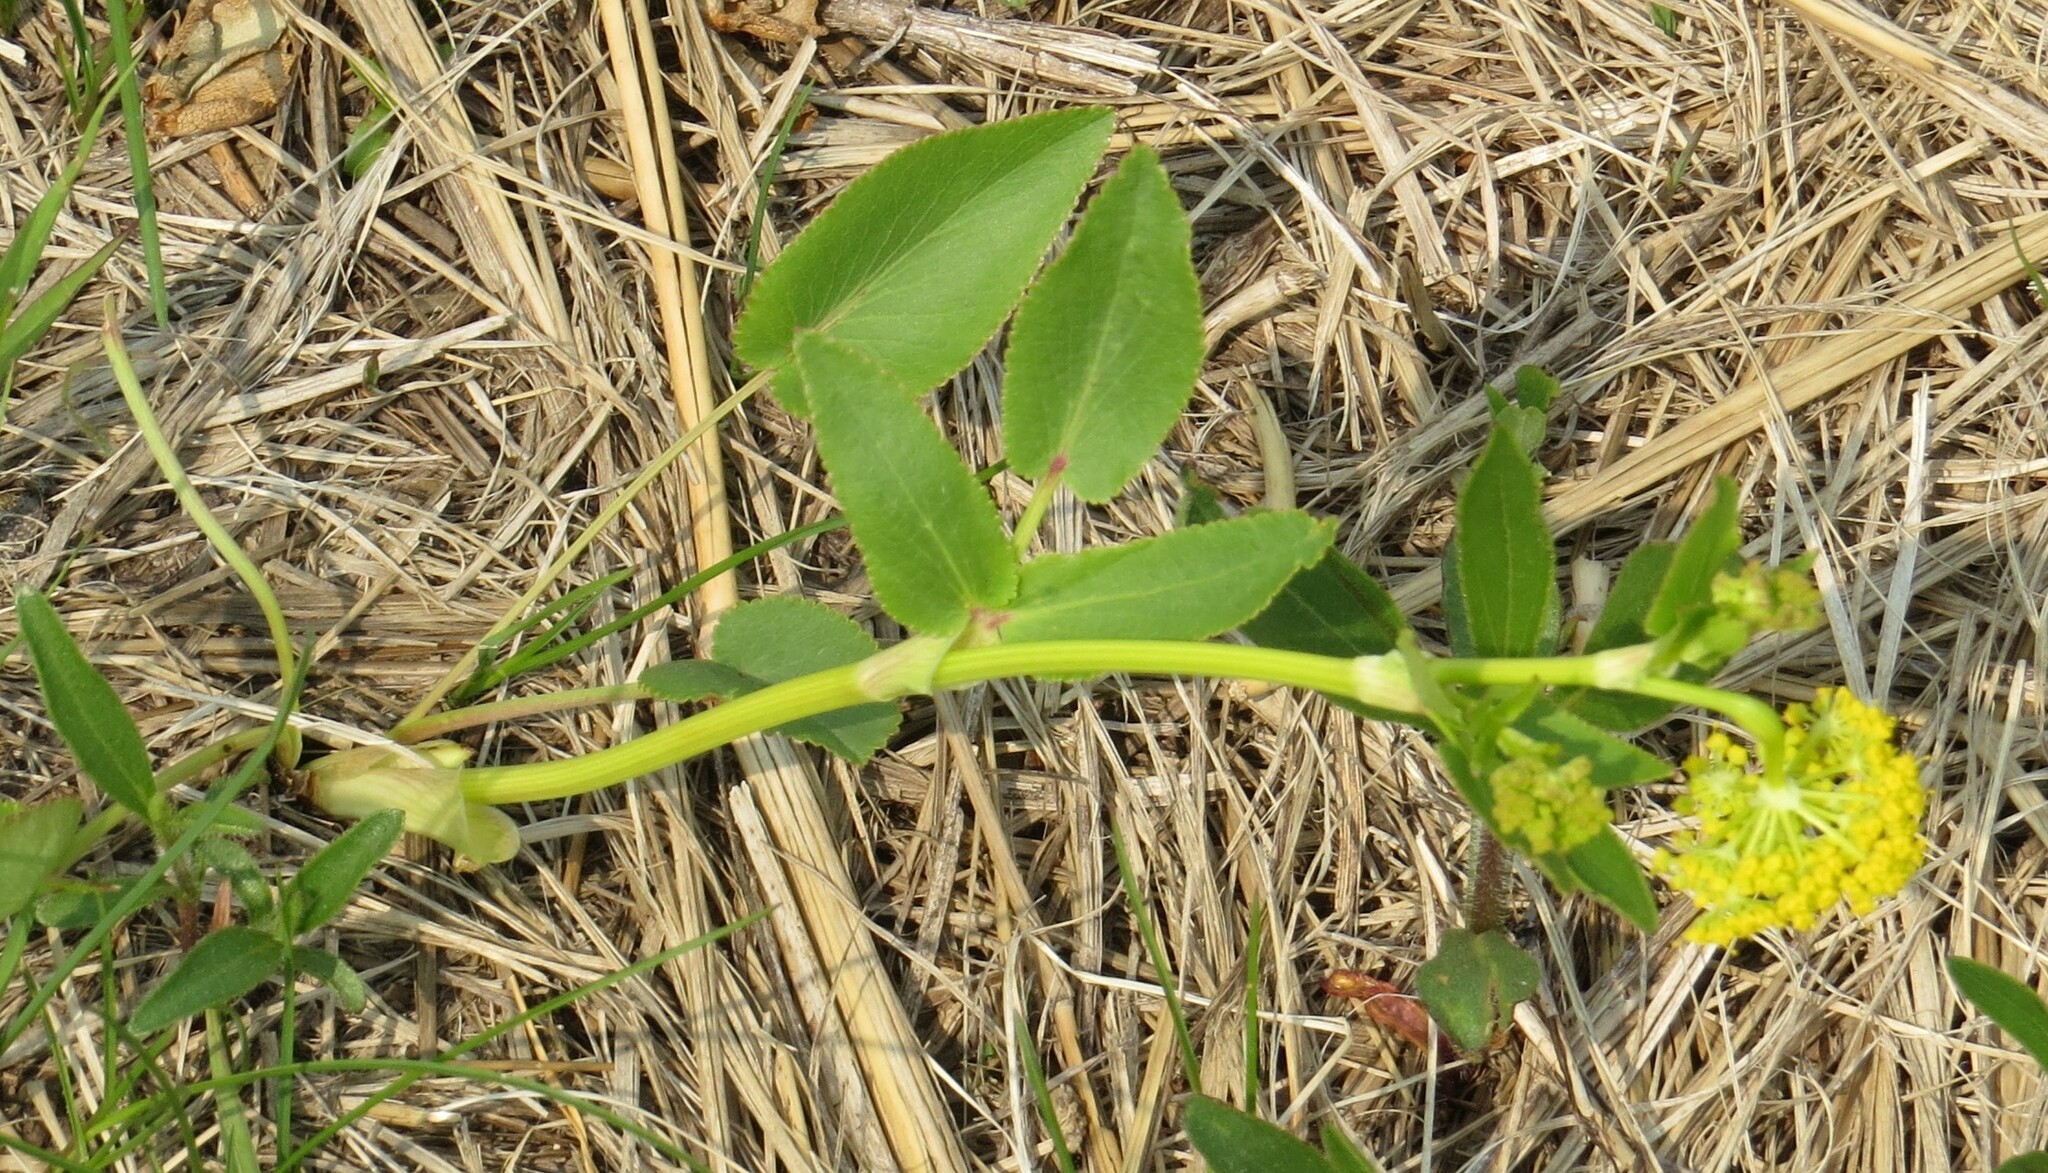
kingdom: Plantae
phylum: Tracheophyta
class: Magnoliopsida
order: Apiales
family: Apiaceae
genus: Zizia
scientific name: Zizia aptera
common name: Heart-leaved alexanders
